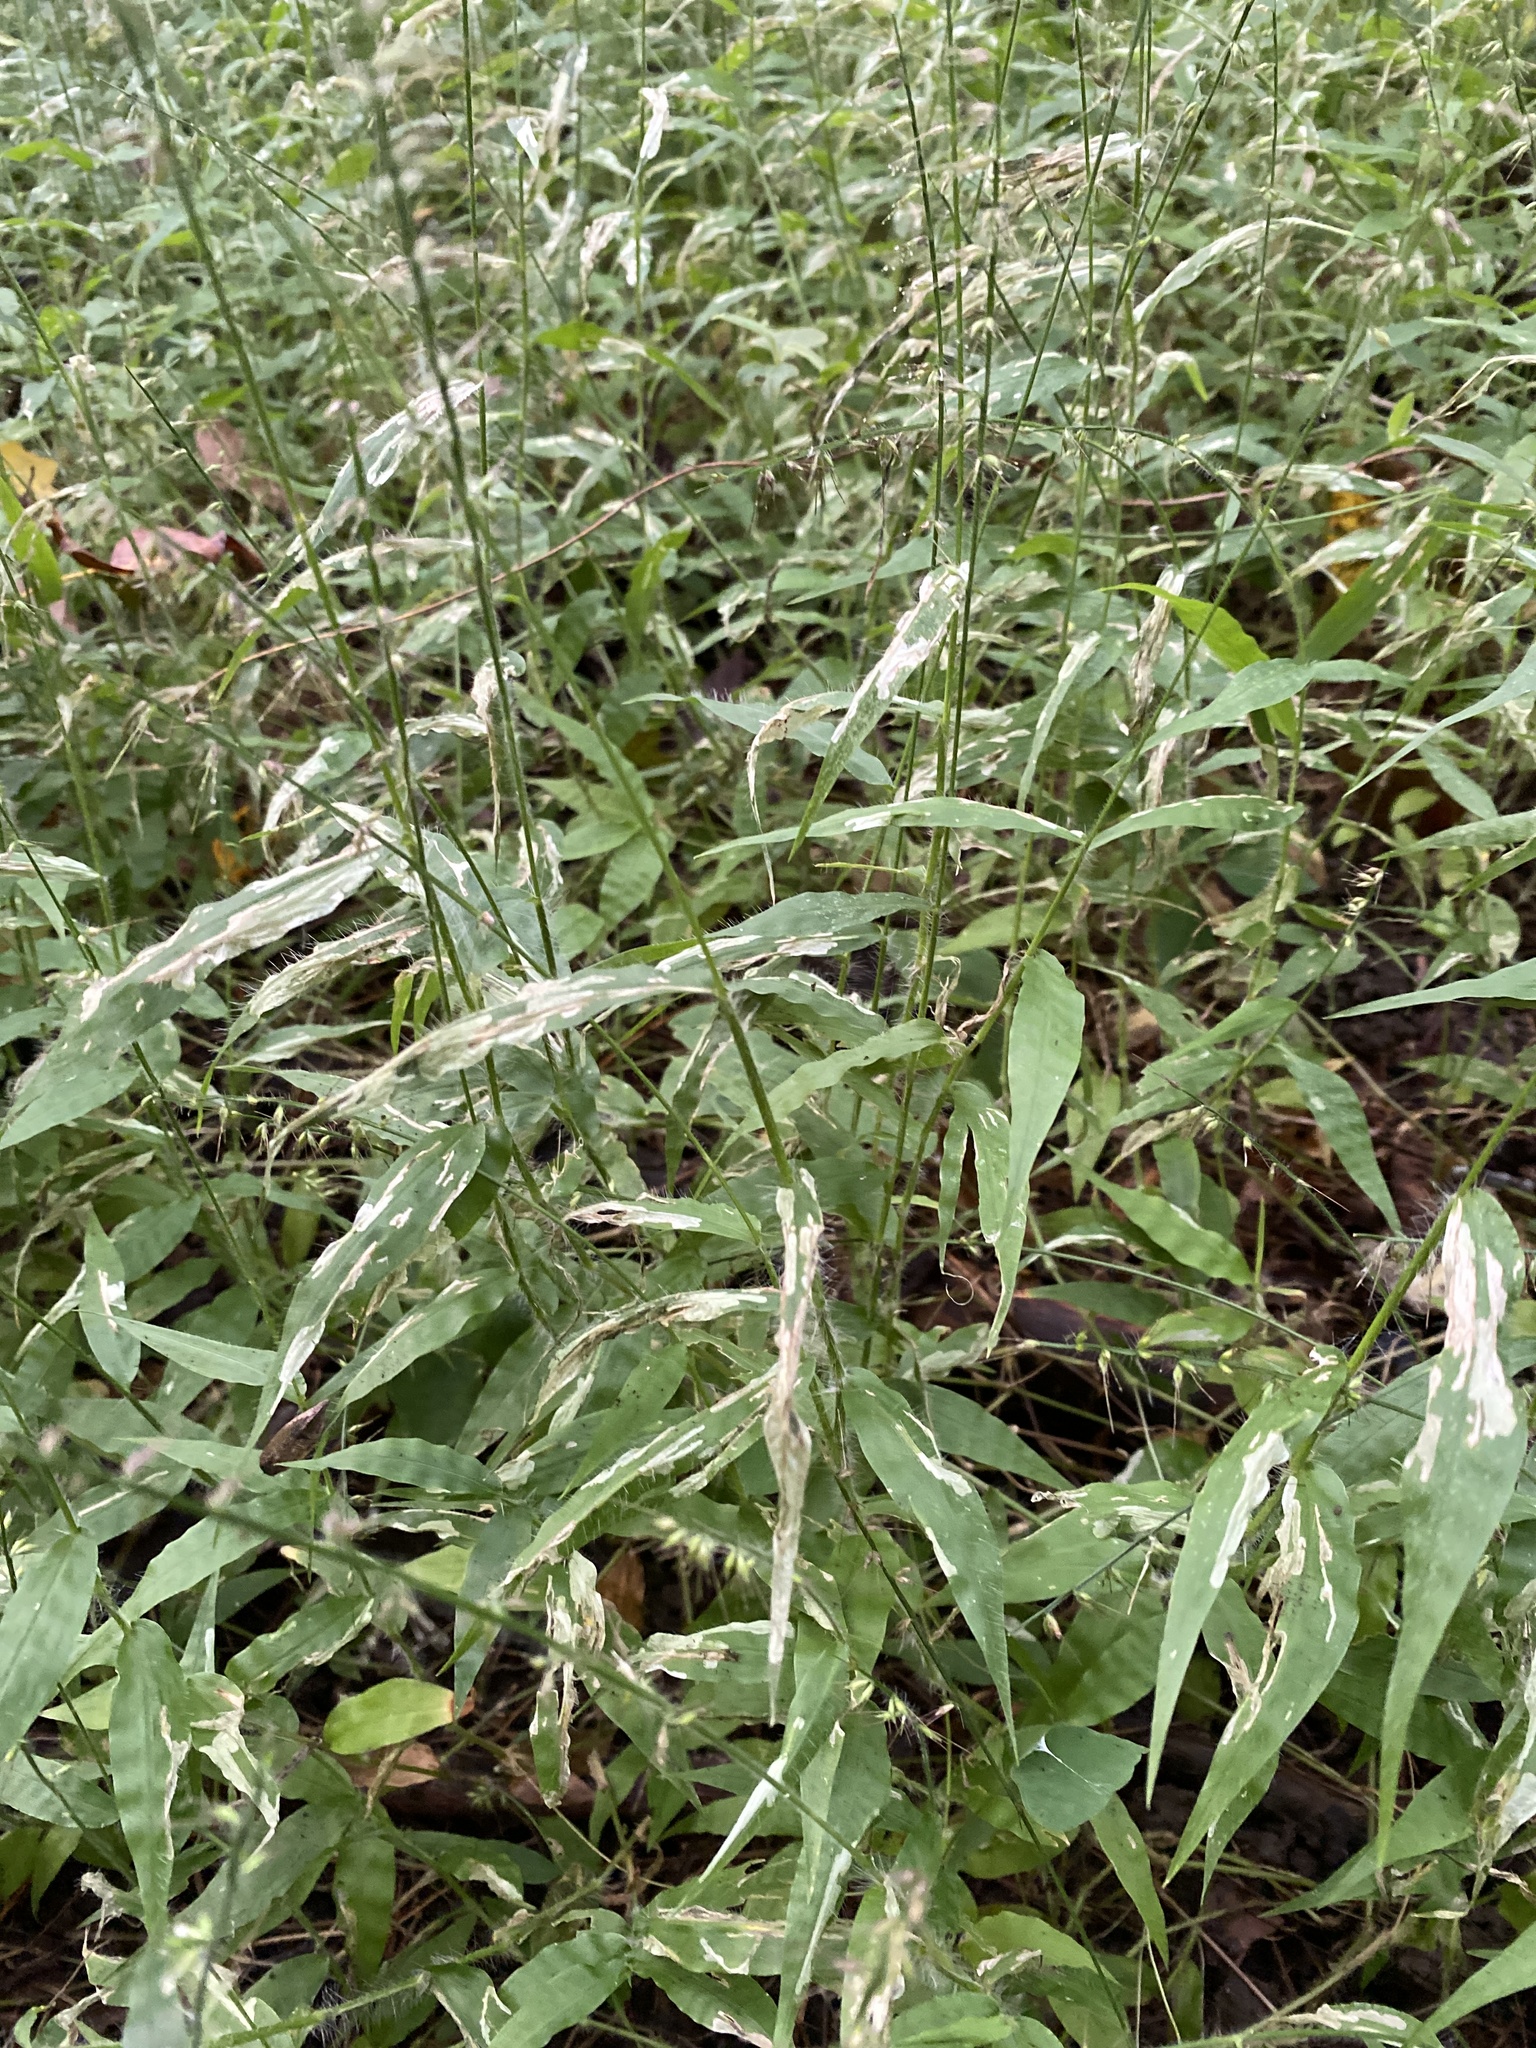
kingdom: Plantae
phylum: Tracheophyta
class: Liliopsida
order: Poales
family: Poaceae
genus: Oplismenus
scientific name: Oplismenus undulatifolius
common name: Wavyleaf basketgrass
